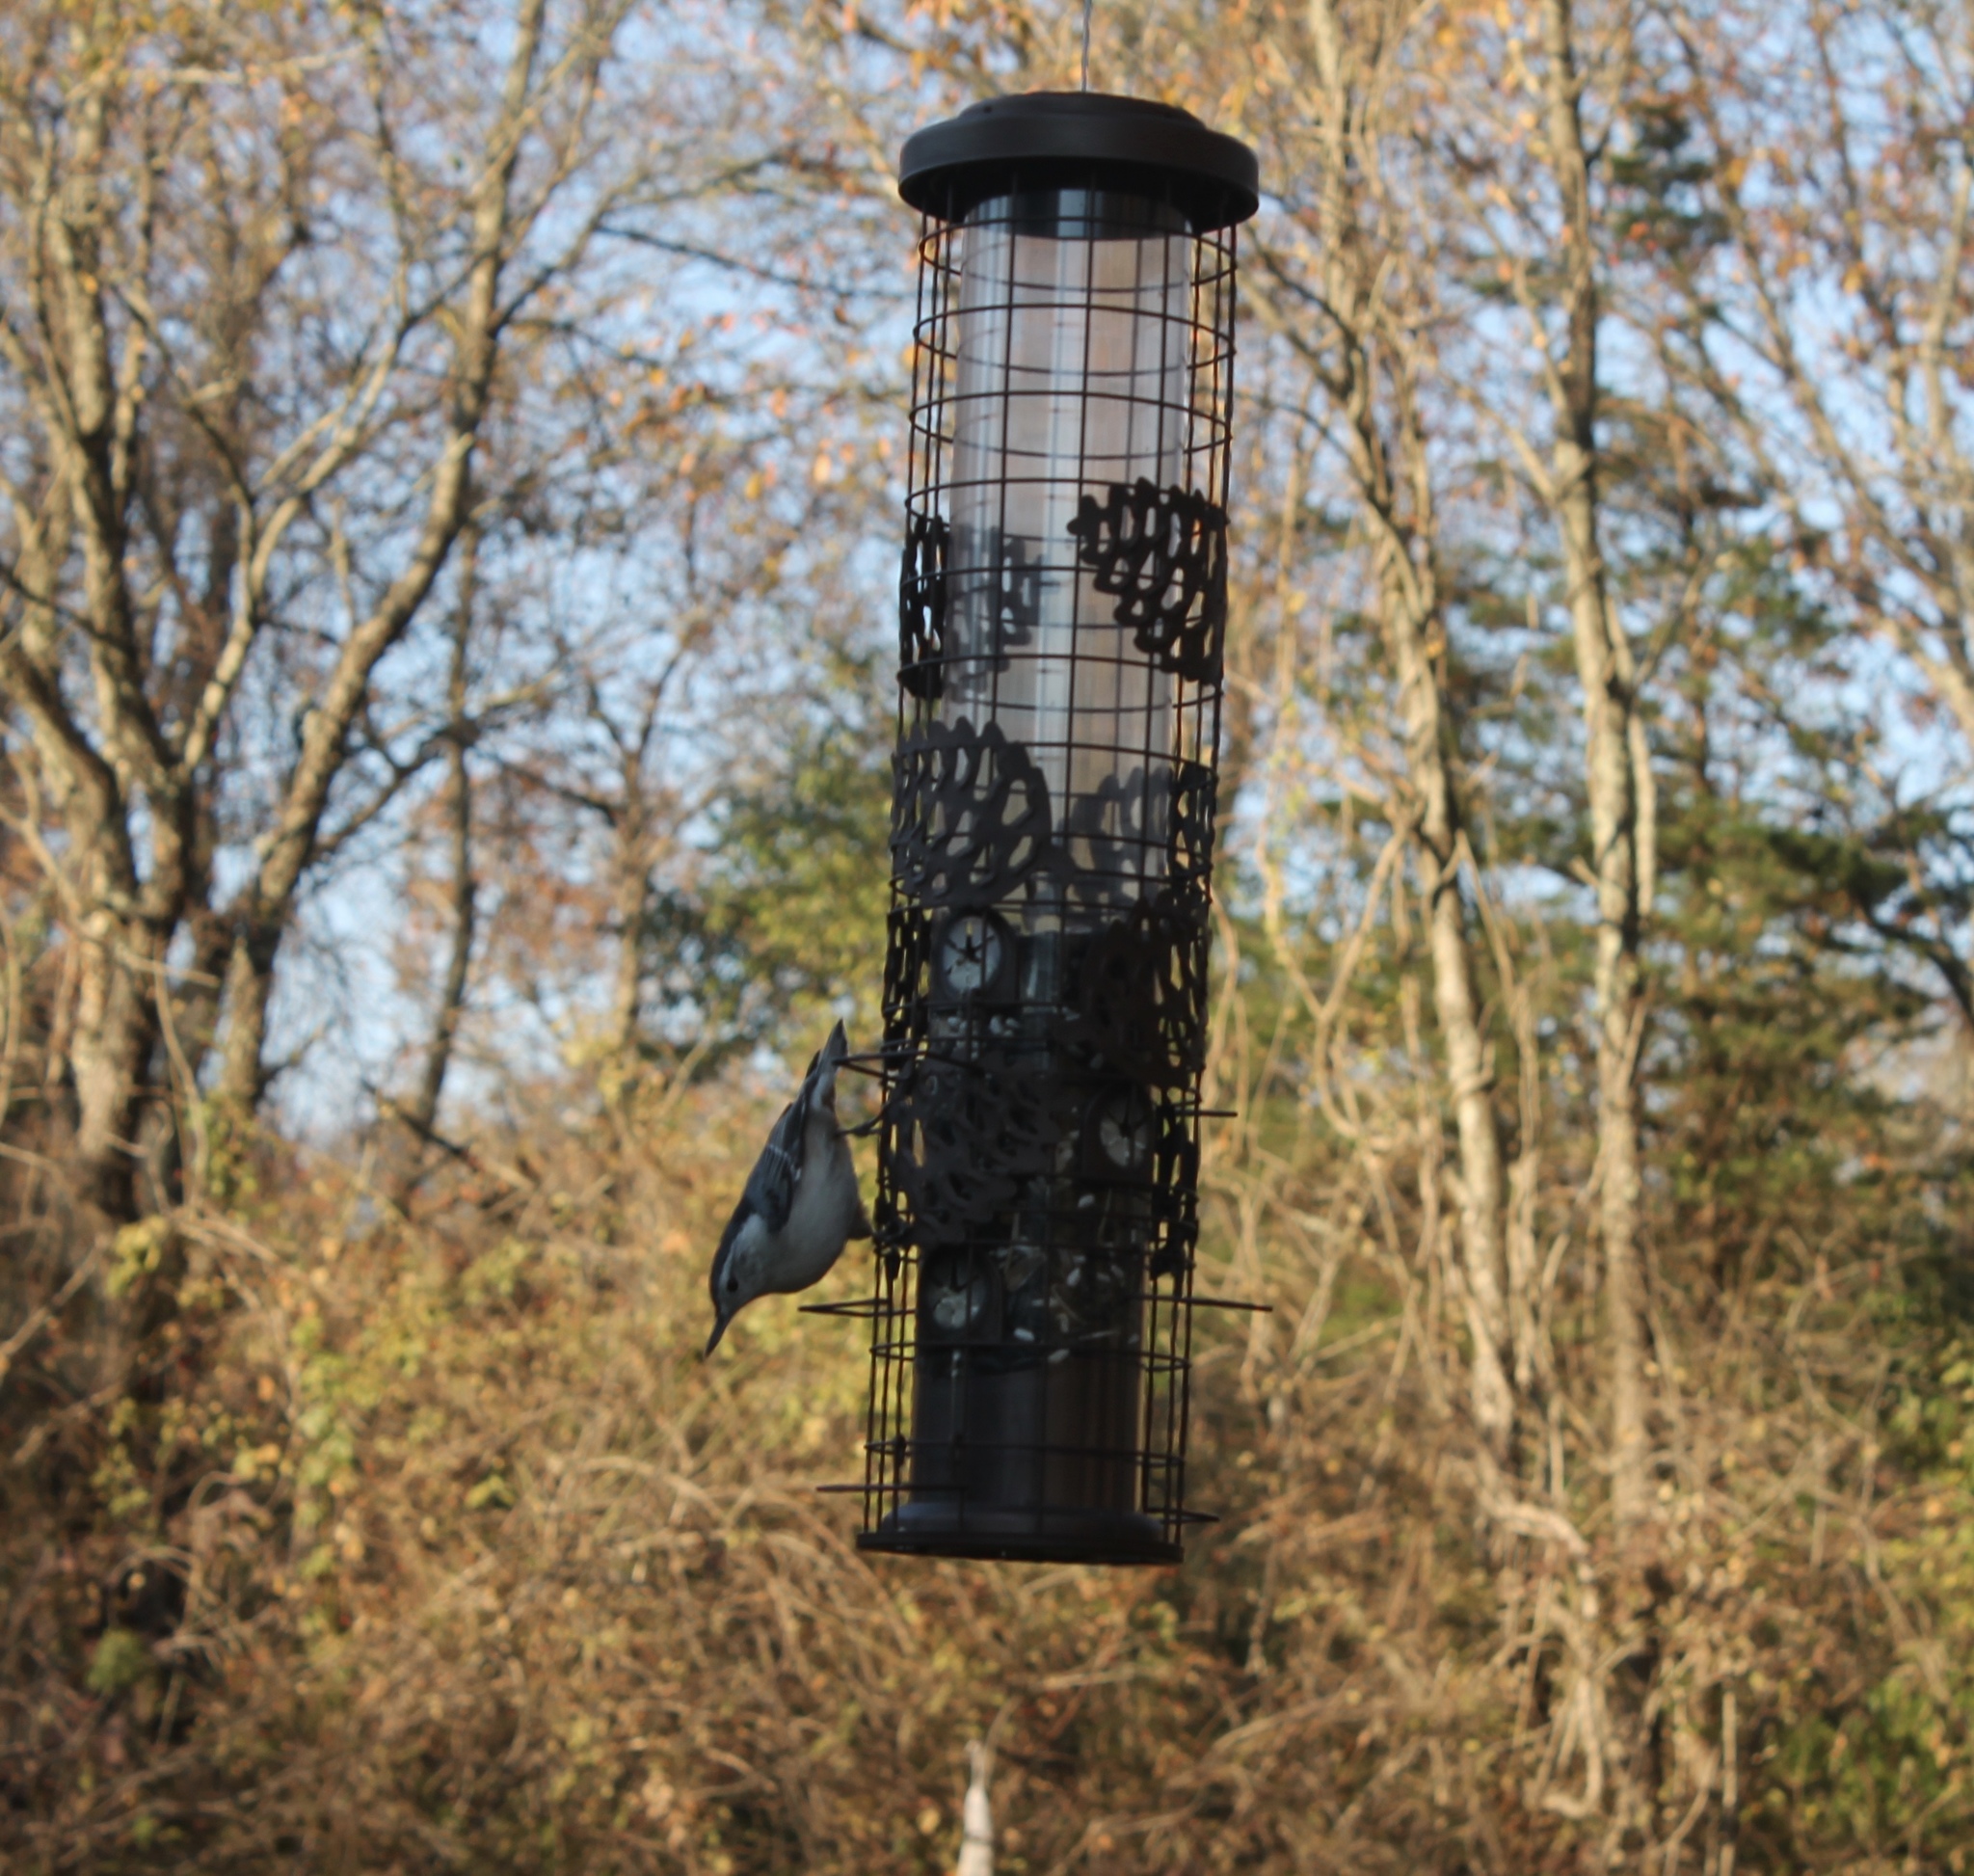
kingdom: Animalia
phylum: Chordata
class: Aves
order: Passeriformes
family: Sittidae
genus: Sitta
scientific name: Sitta carolinensis
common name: White-breasted nuthatch
